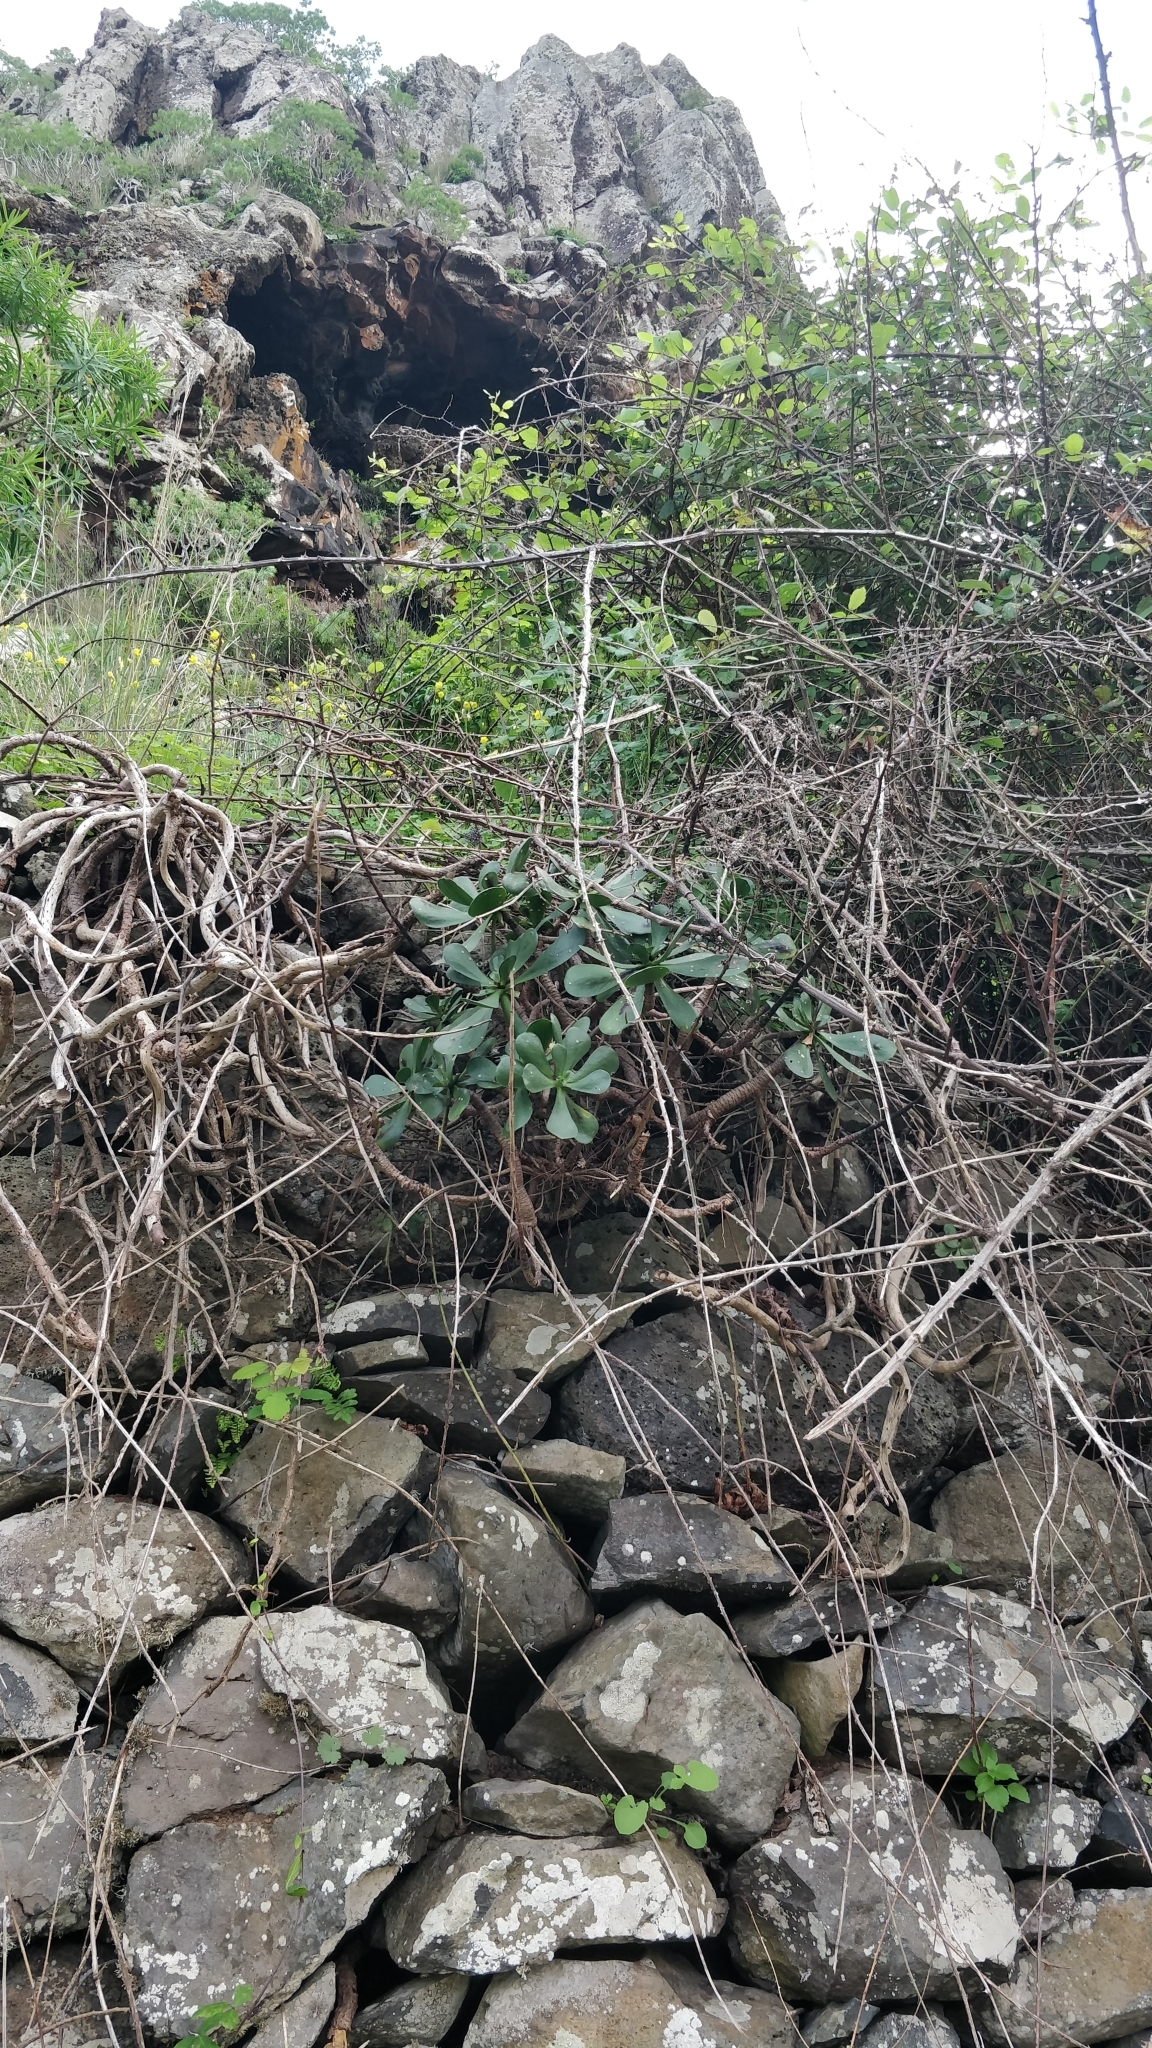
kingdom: Plantae
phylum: Tracheophyta
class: Magnoliopsida
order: Saxifragales
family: Crassulaceae
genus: Aeonium
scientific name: Aeonium glutinosum
